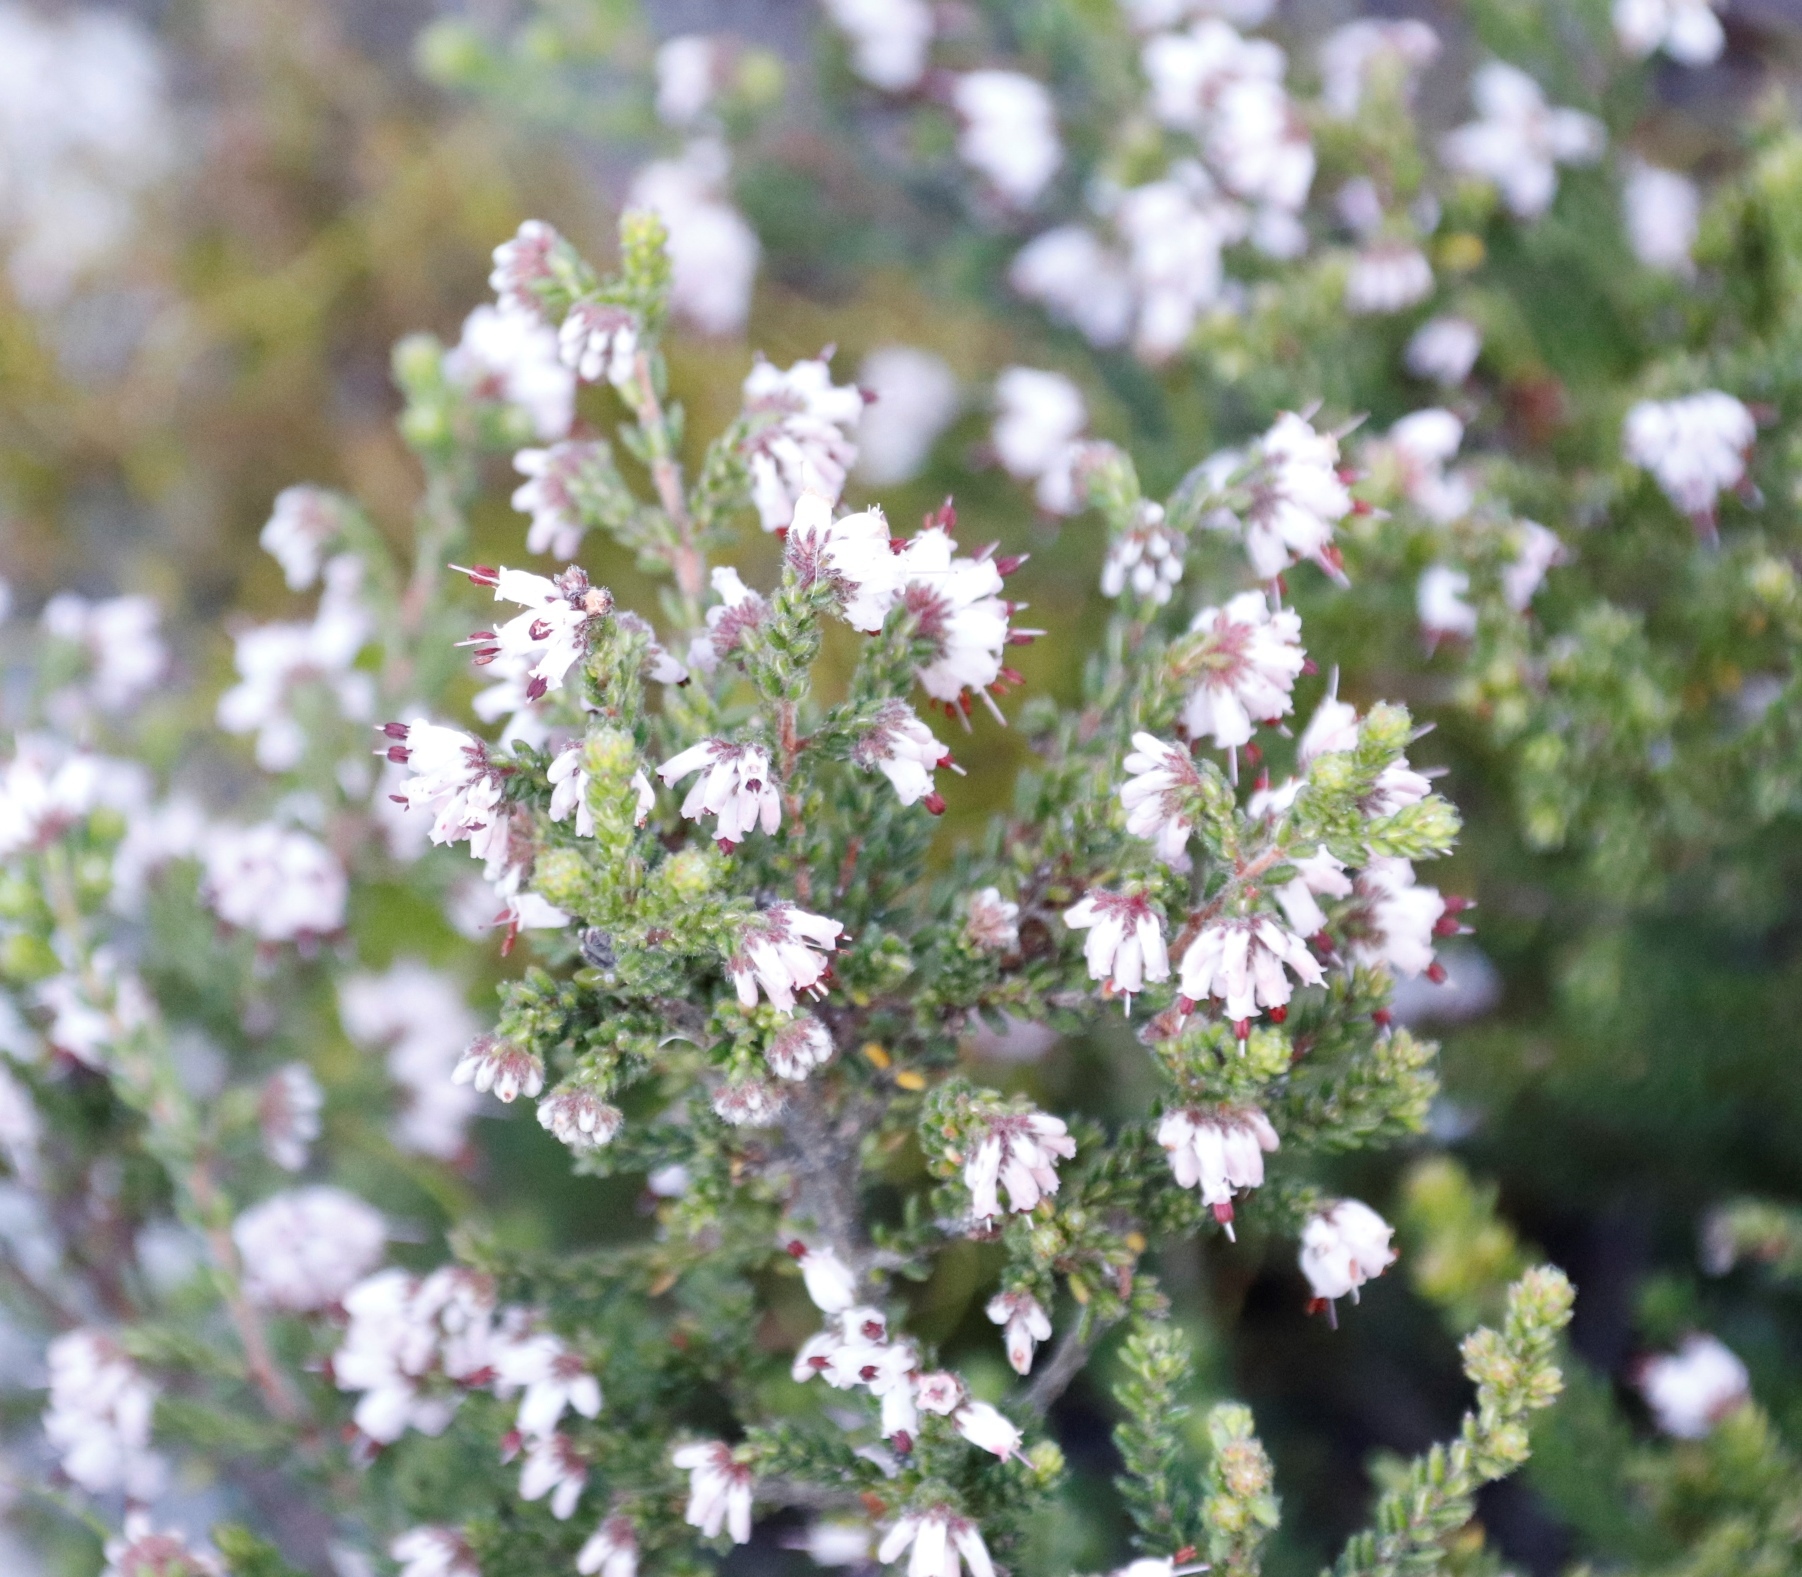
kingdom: Plantae
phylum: Tracheophyta
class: Magnoliopsida
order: Ericales
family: Ericaceae
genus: Erica
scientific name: Erica ericoides
